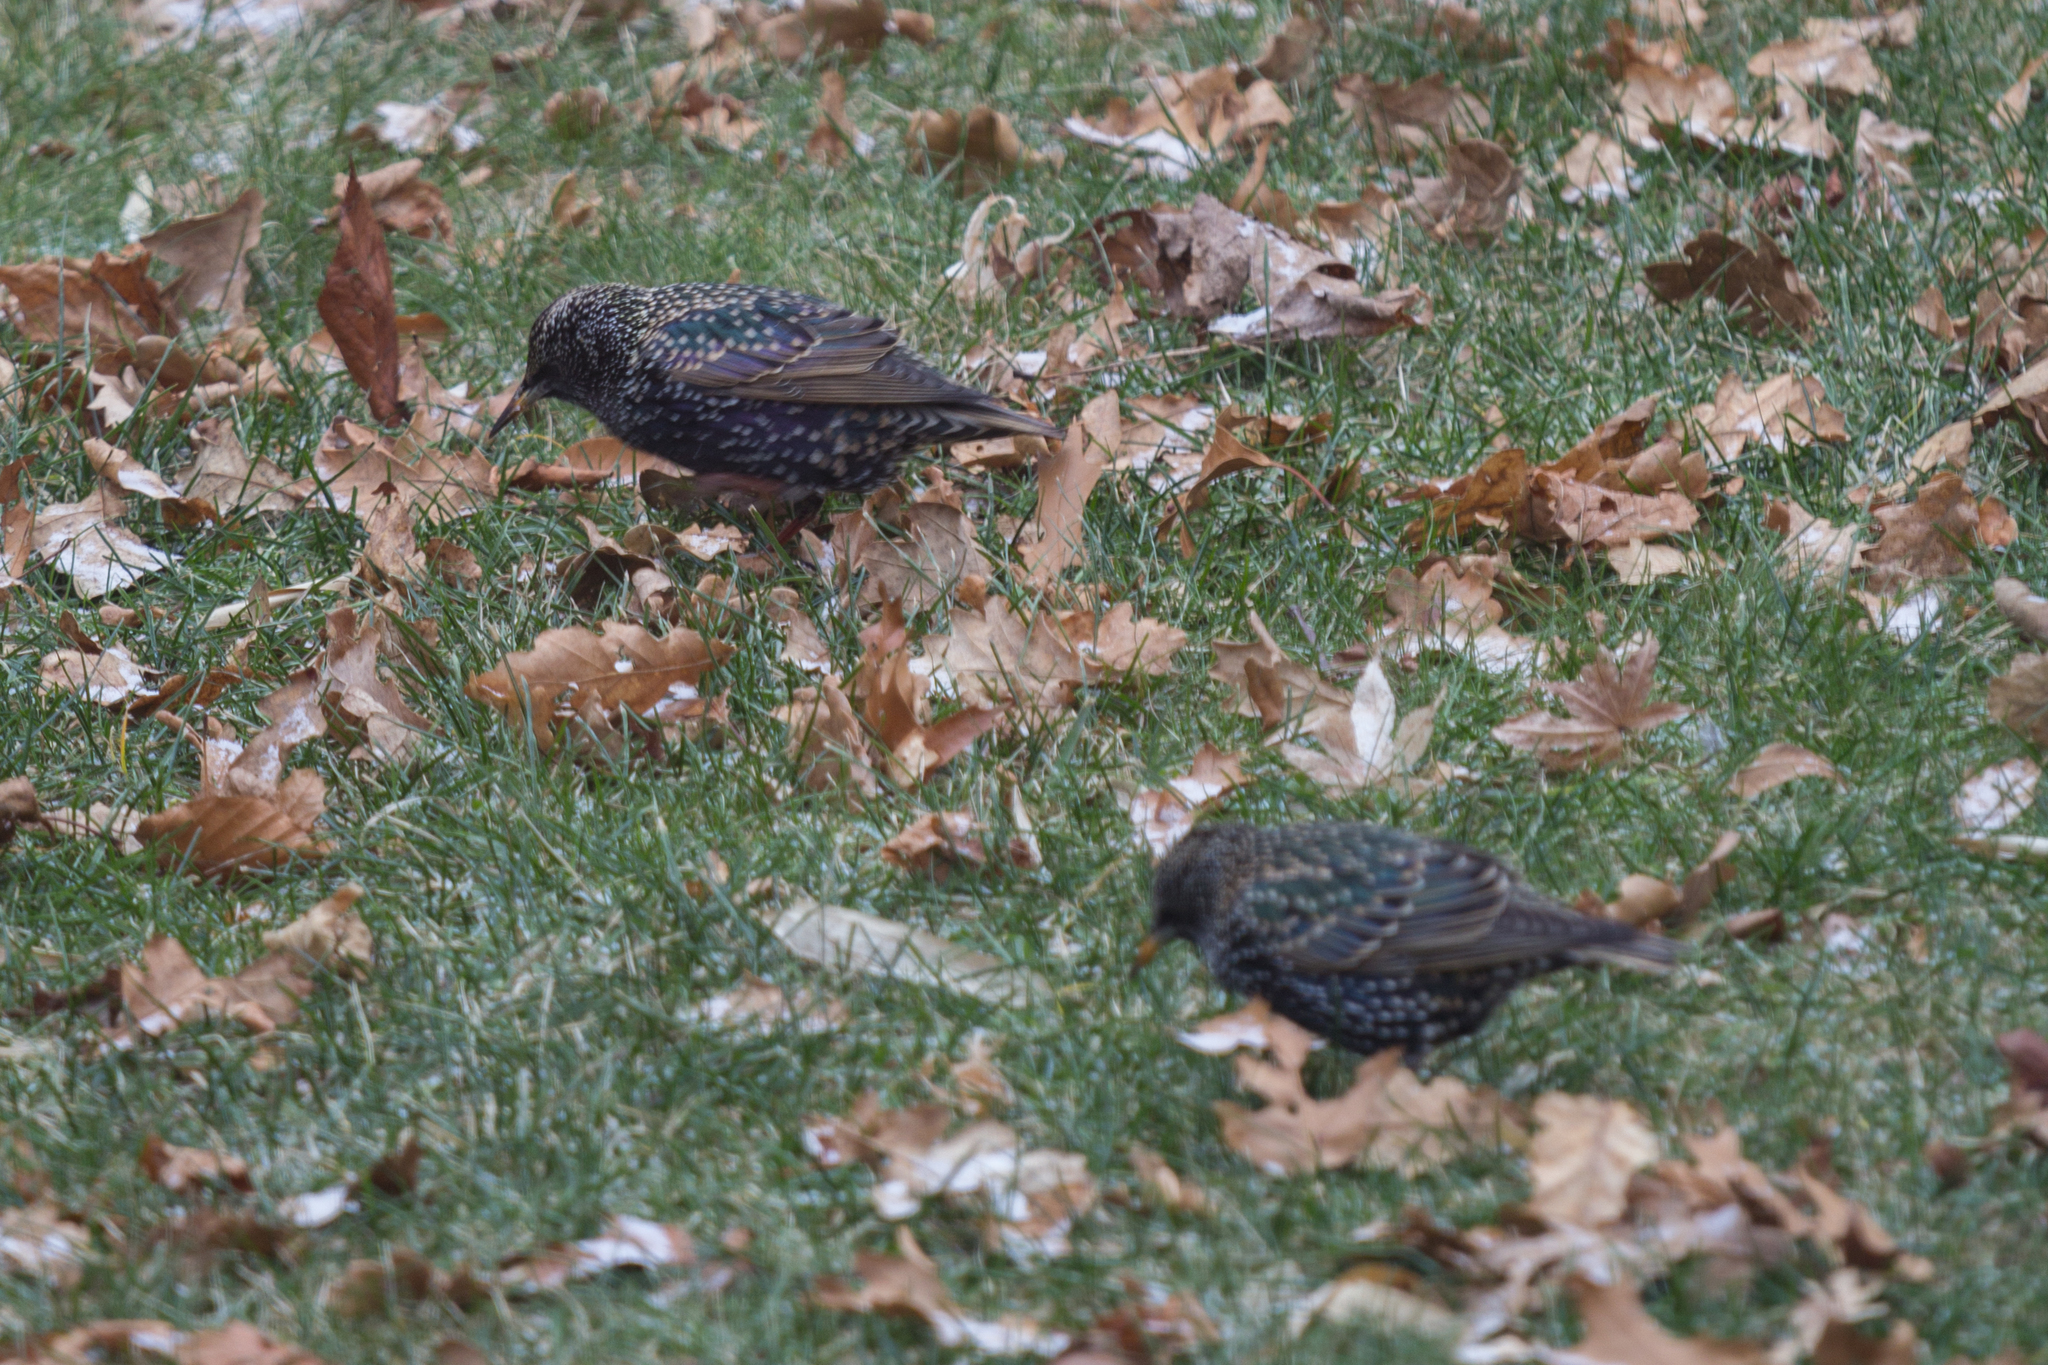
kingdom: Animalia
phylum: Chordata
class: Aves
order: Passeriformes
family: Sturnidae
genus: Sturnus
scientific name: Sturnus vulgaris
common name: Common starling
